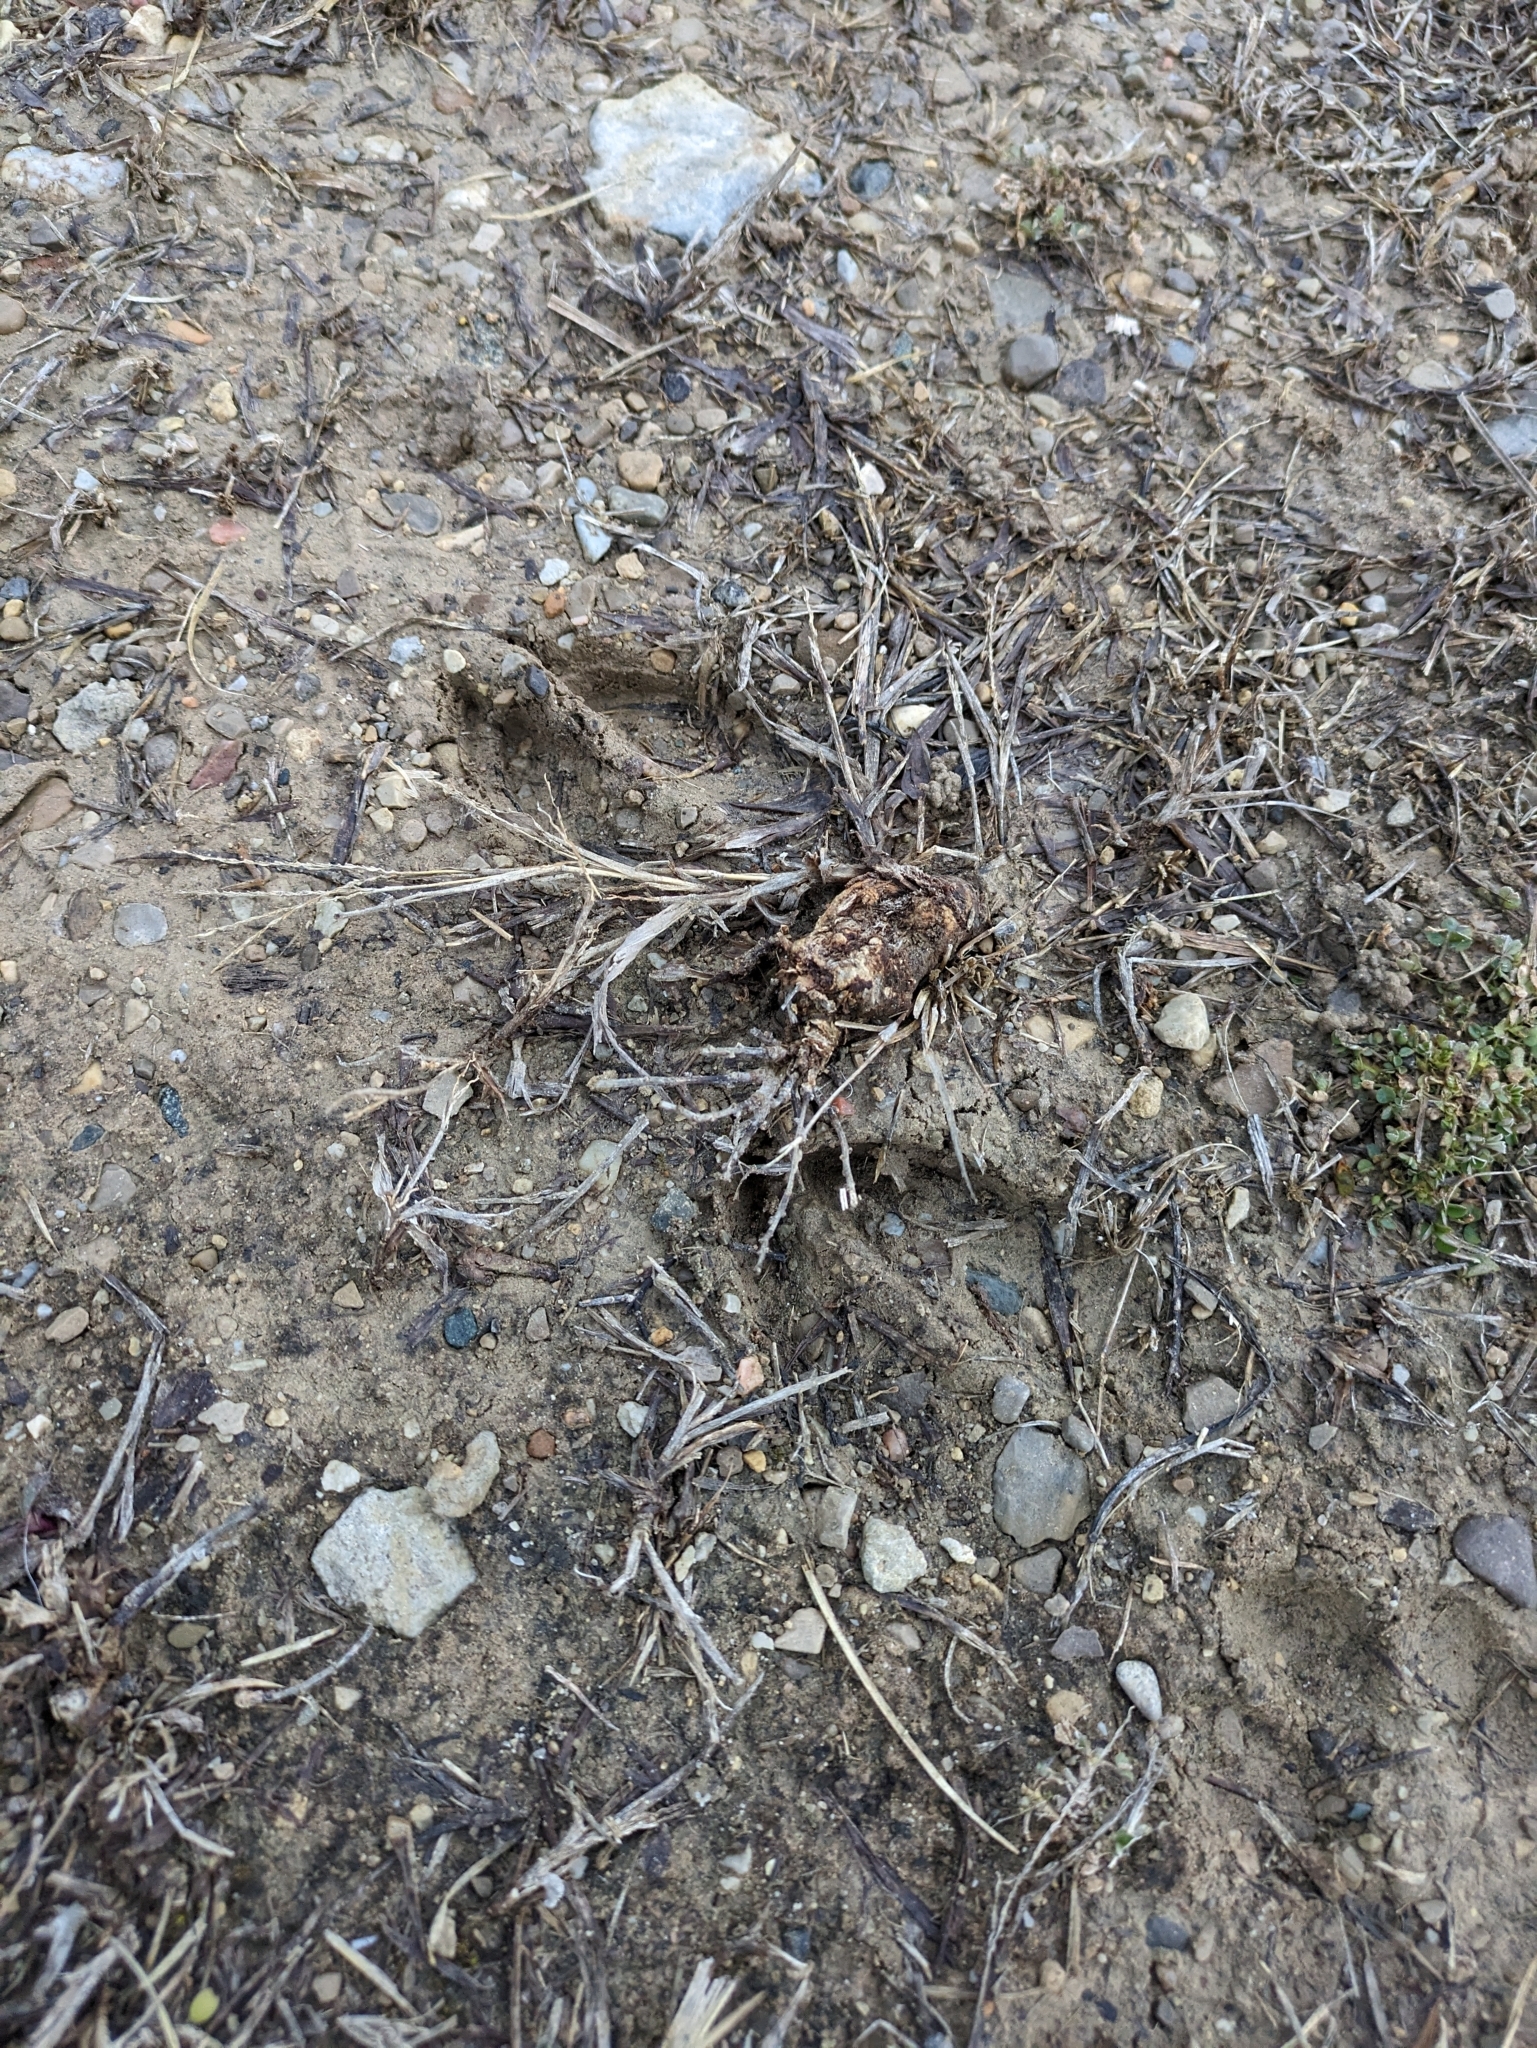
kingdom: Animalia
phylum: Chordata
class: Mammalia
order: Artiodactyla
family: Cervidae
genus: Odocoileus
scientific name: Odocoileus virginianus
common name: White-tailed deer
